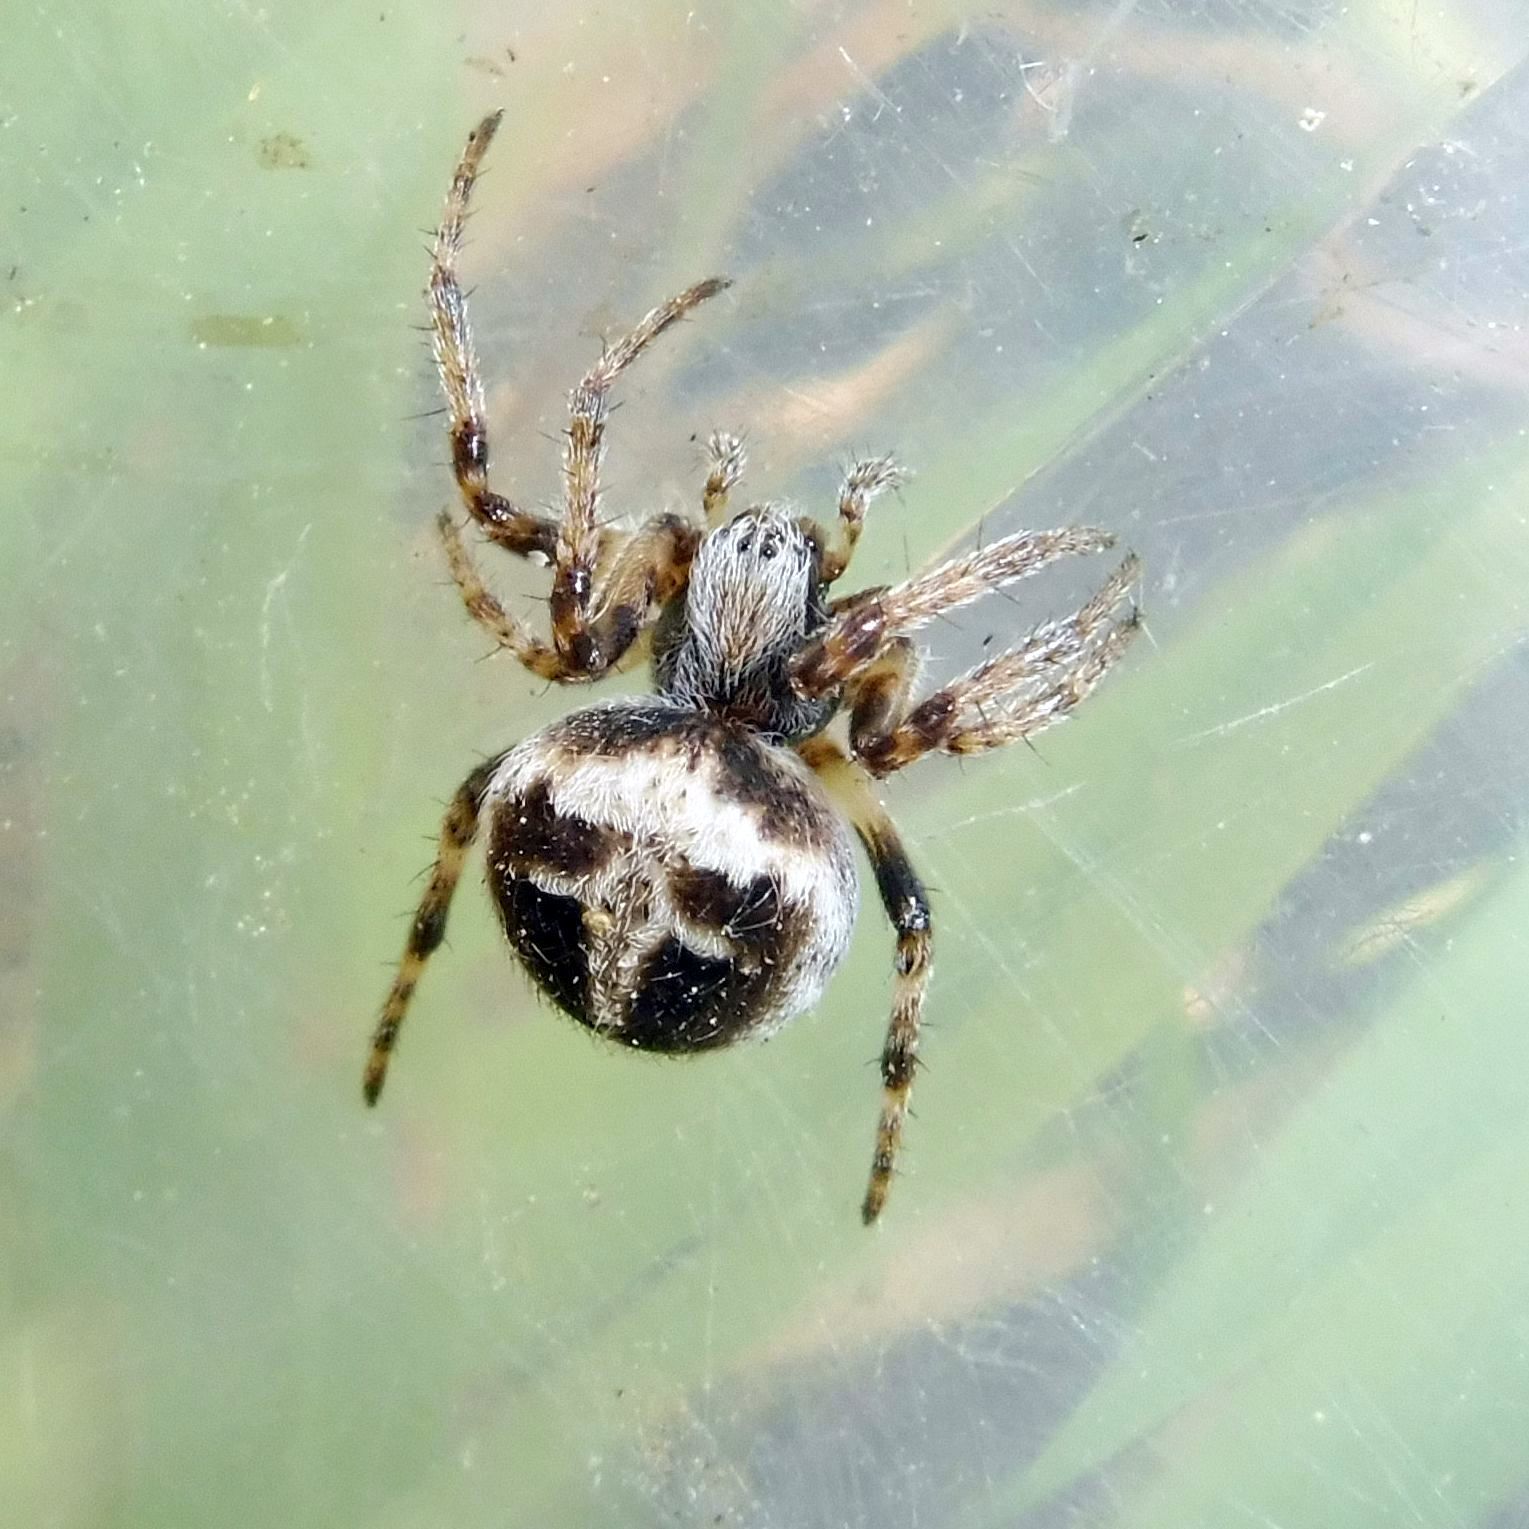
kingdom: Animalia
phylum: Arthropoda
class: Arachnida
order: Araneae
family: Araneidae
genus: Agalenatea
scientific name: Agalenatea redii
